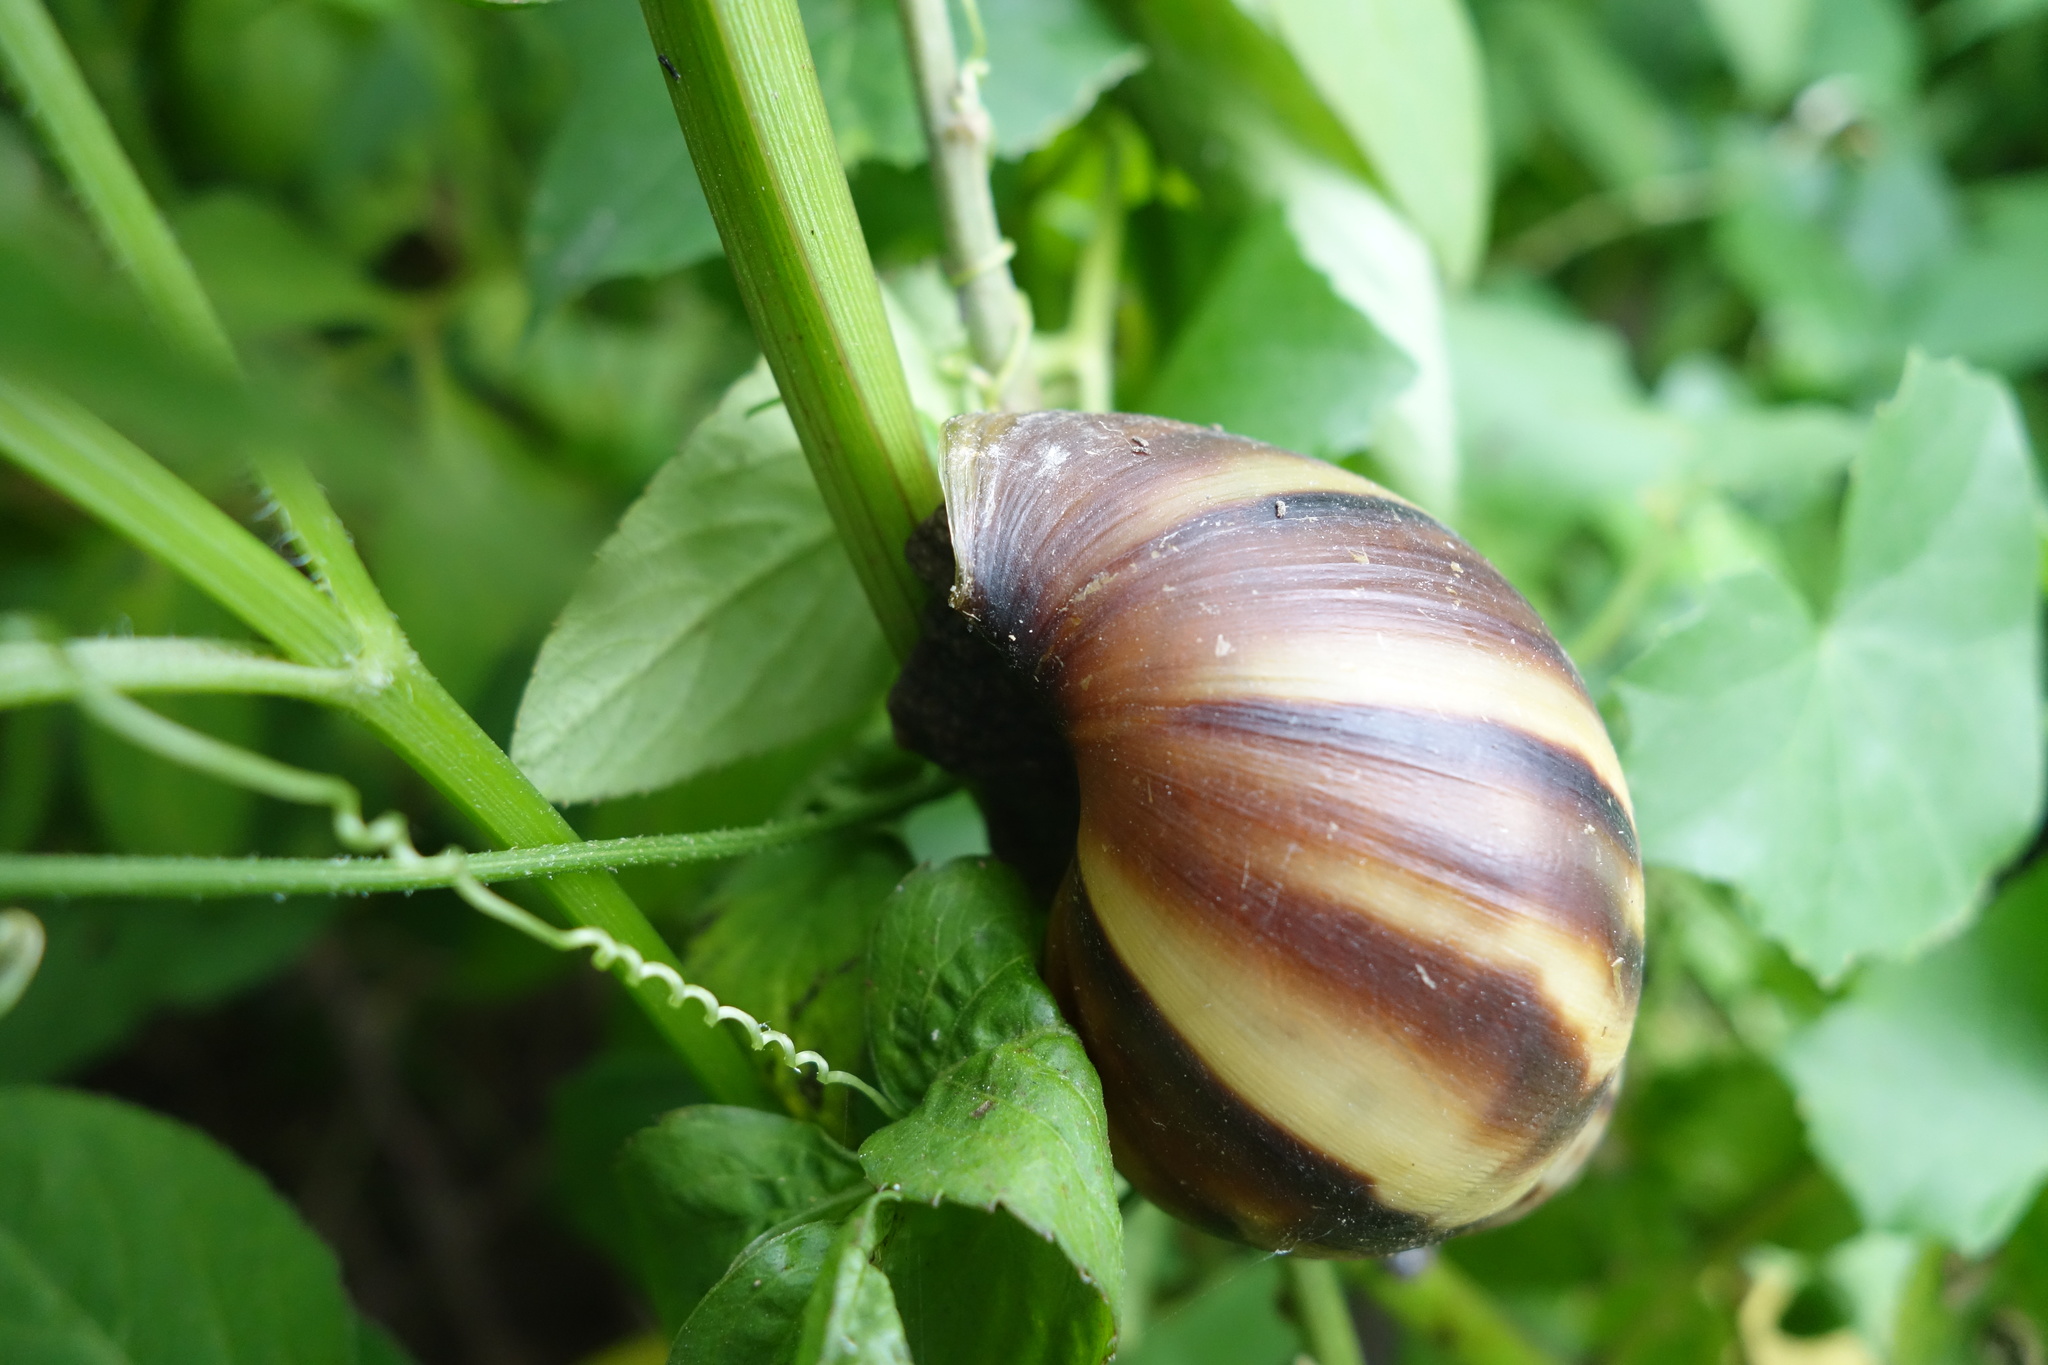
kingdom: Animalia
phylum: Mollusca
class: Gastropoda
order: Stylommatophora
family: Achatinidae
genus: Lissachatina
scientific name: Lissachatina fulica
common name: Giant african snail
